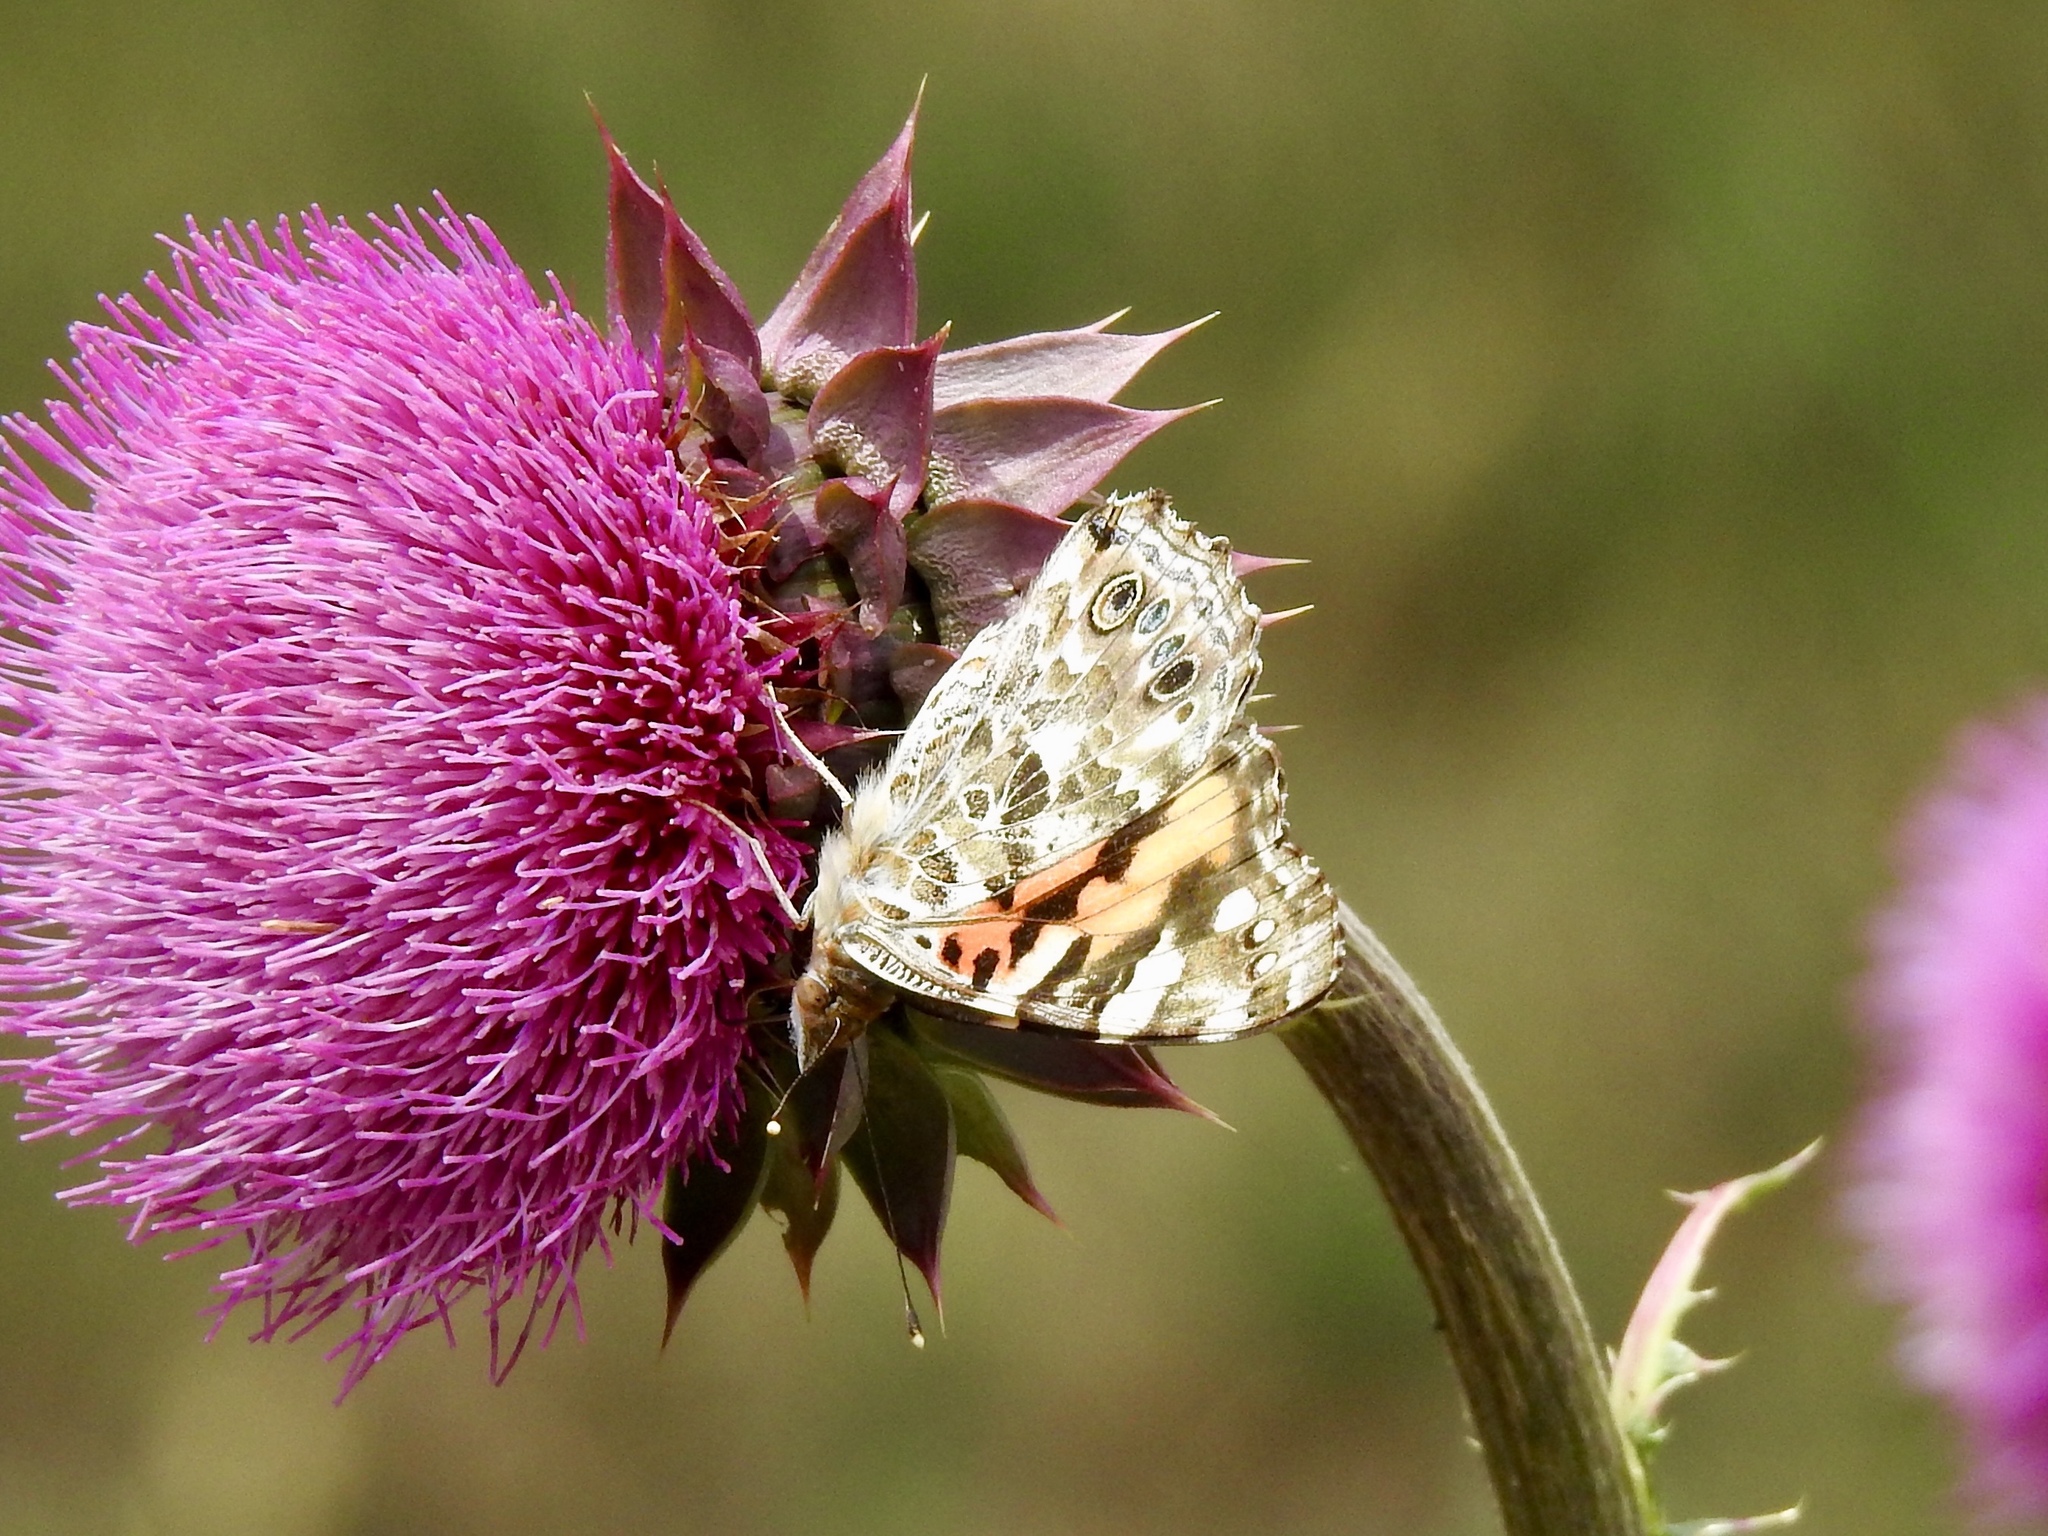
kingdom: Animalia
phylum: Arthropoda
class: Insecta
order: Lepidoptera
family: Nymphalidae
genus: Vanessa
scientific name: Vanessa cardui
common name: Painted lady
